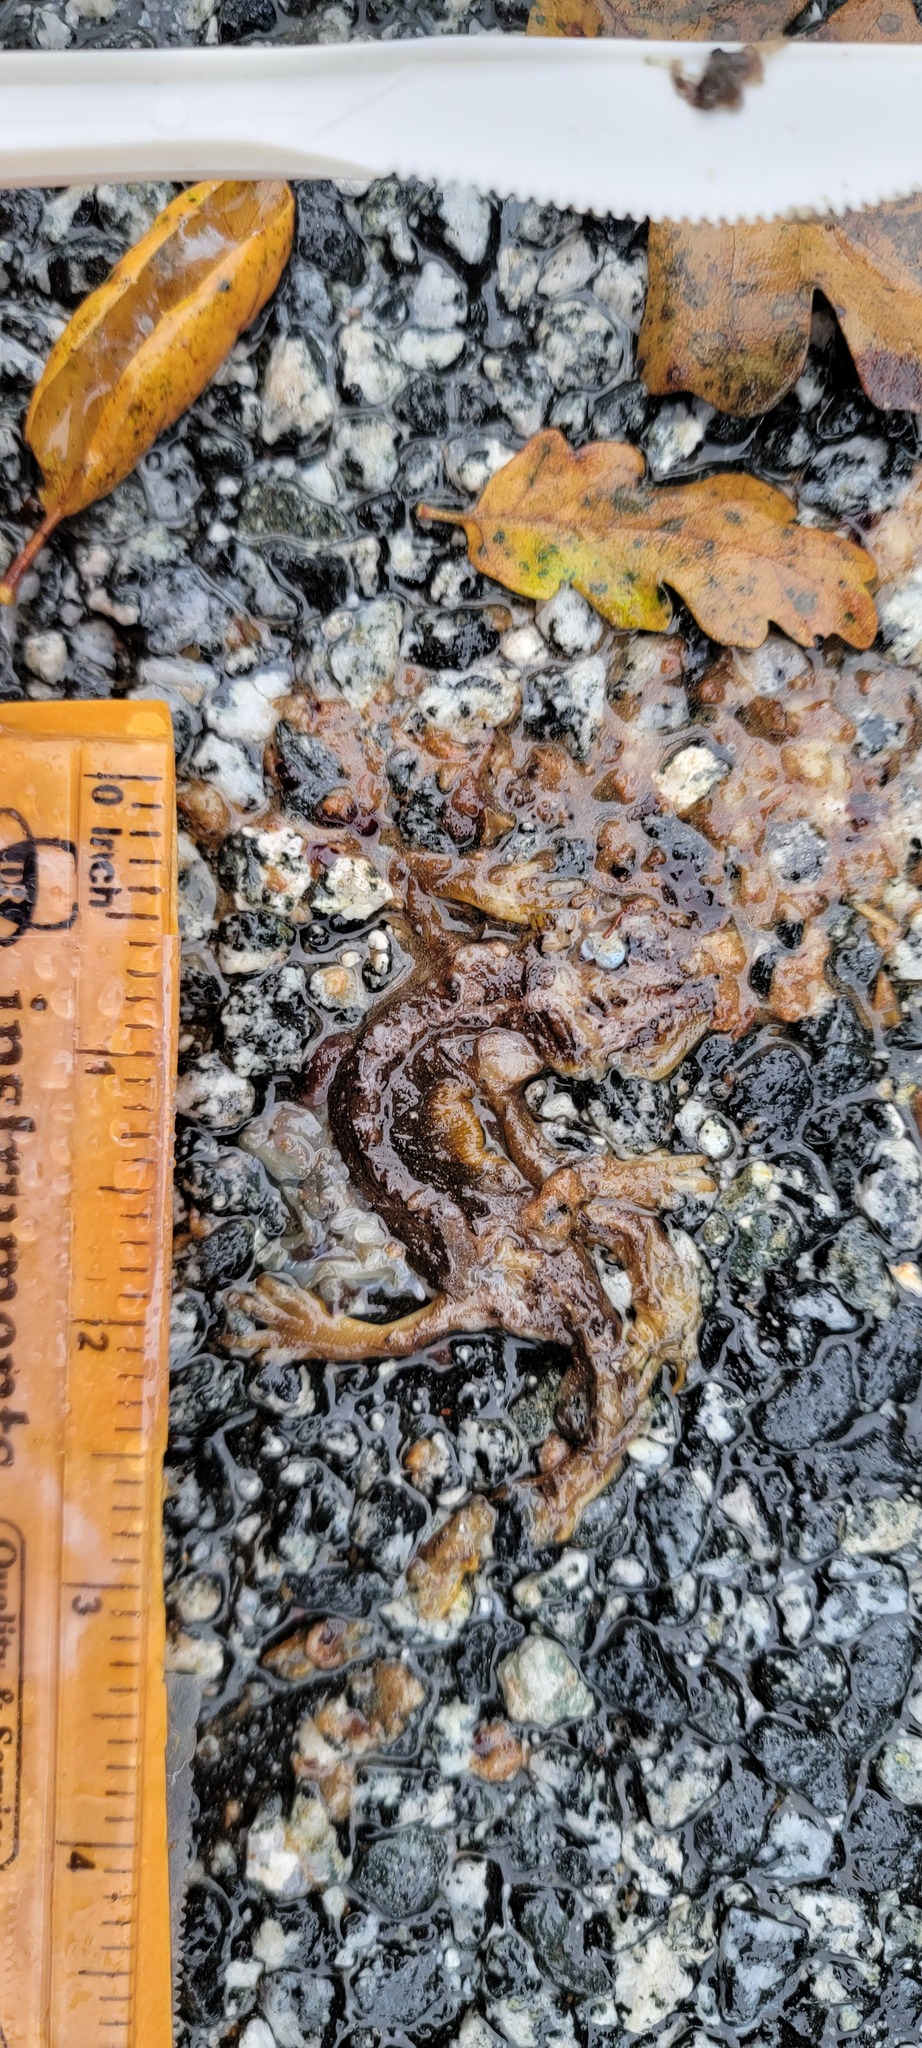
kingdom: Animalia
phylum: Chordata
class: Amphibia
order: Caudata
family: Salamandridae
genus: Taricha
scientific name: Taricha
